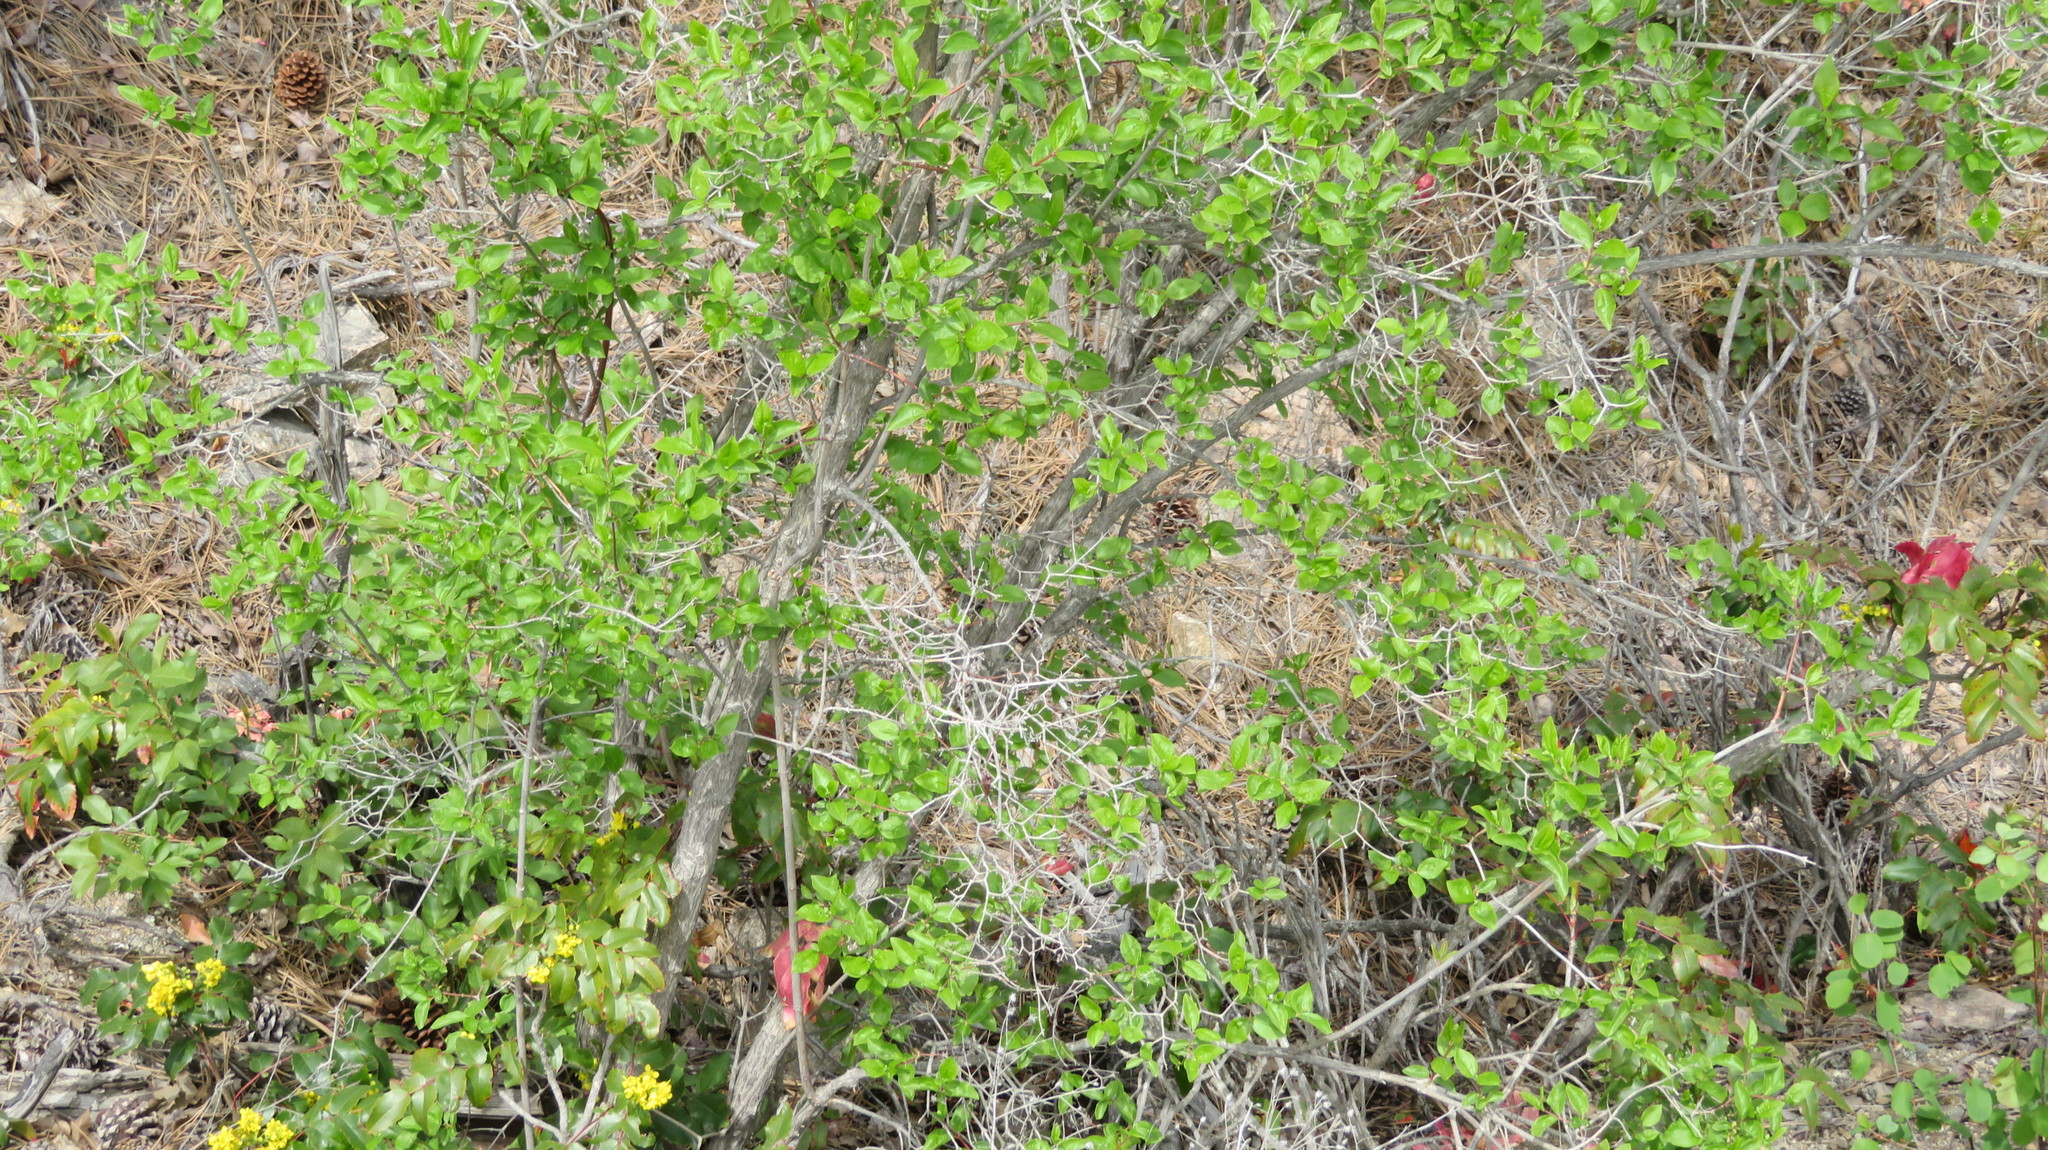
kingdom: Plantae
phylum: Tracheophyta
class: Magnoliopsida
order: Cornales
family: Hydrangeaceae
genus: Philadelphus
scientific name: Philadelphus lewisii
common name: Lewis's mock orange
